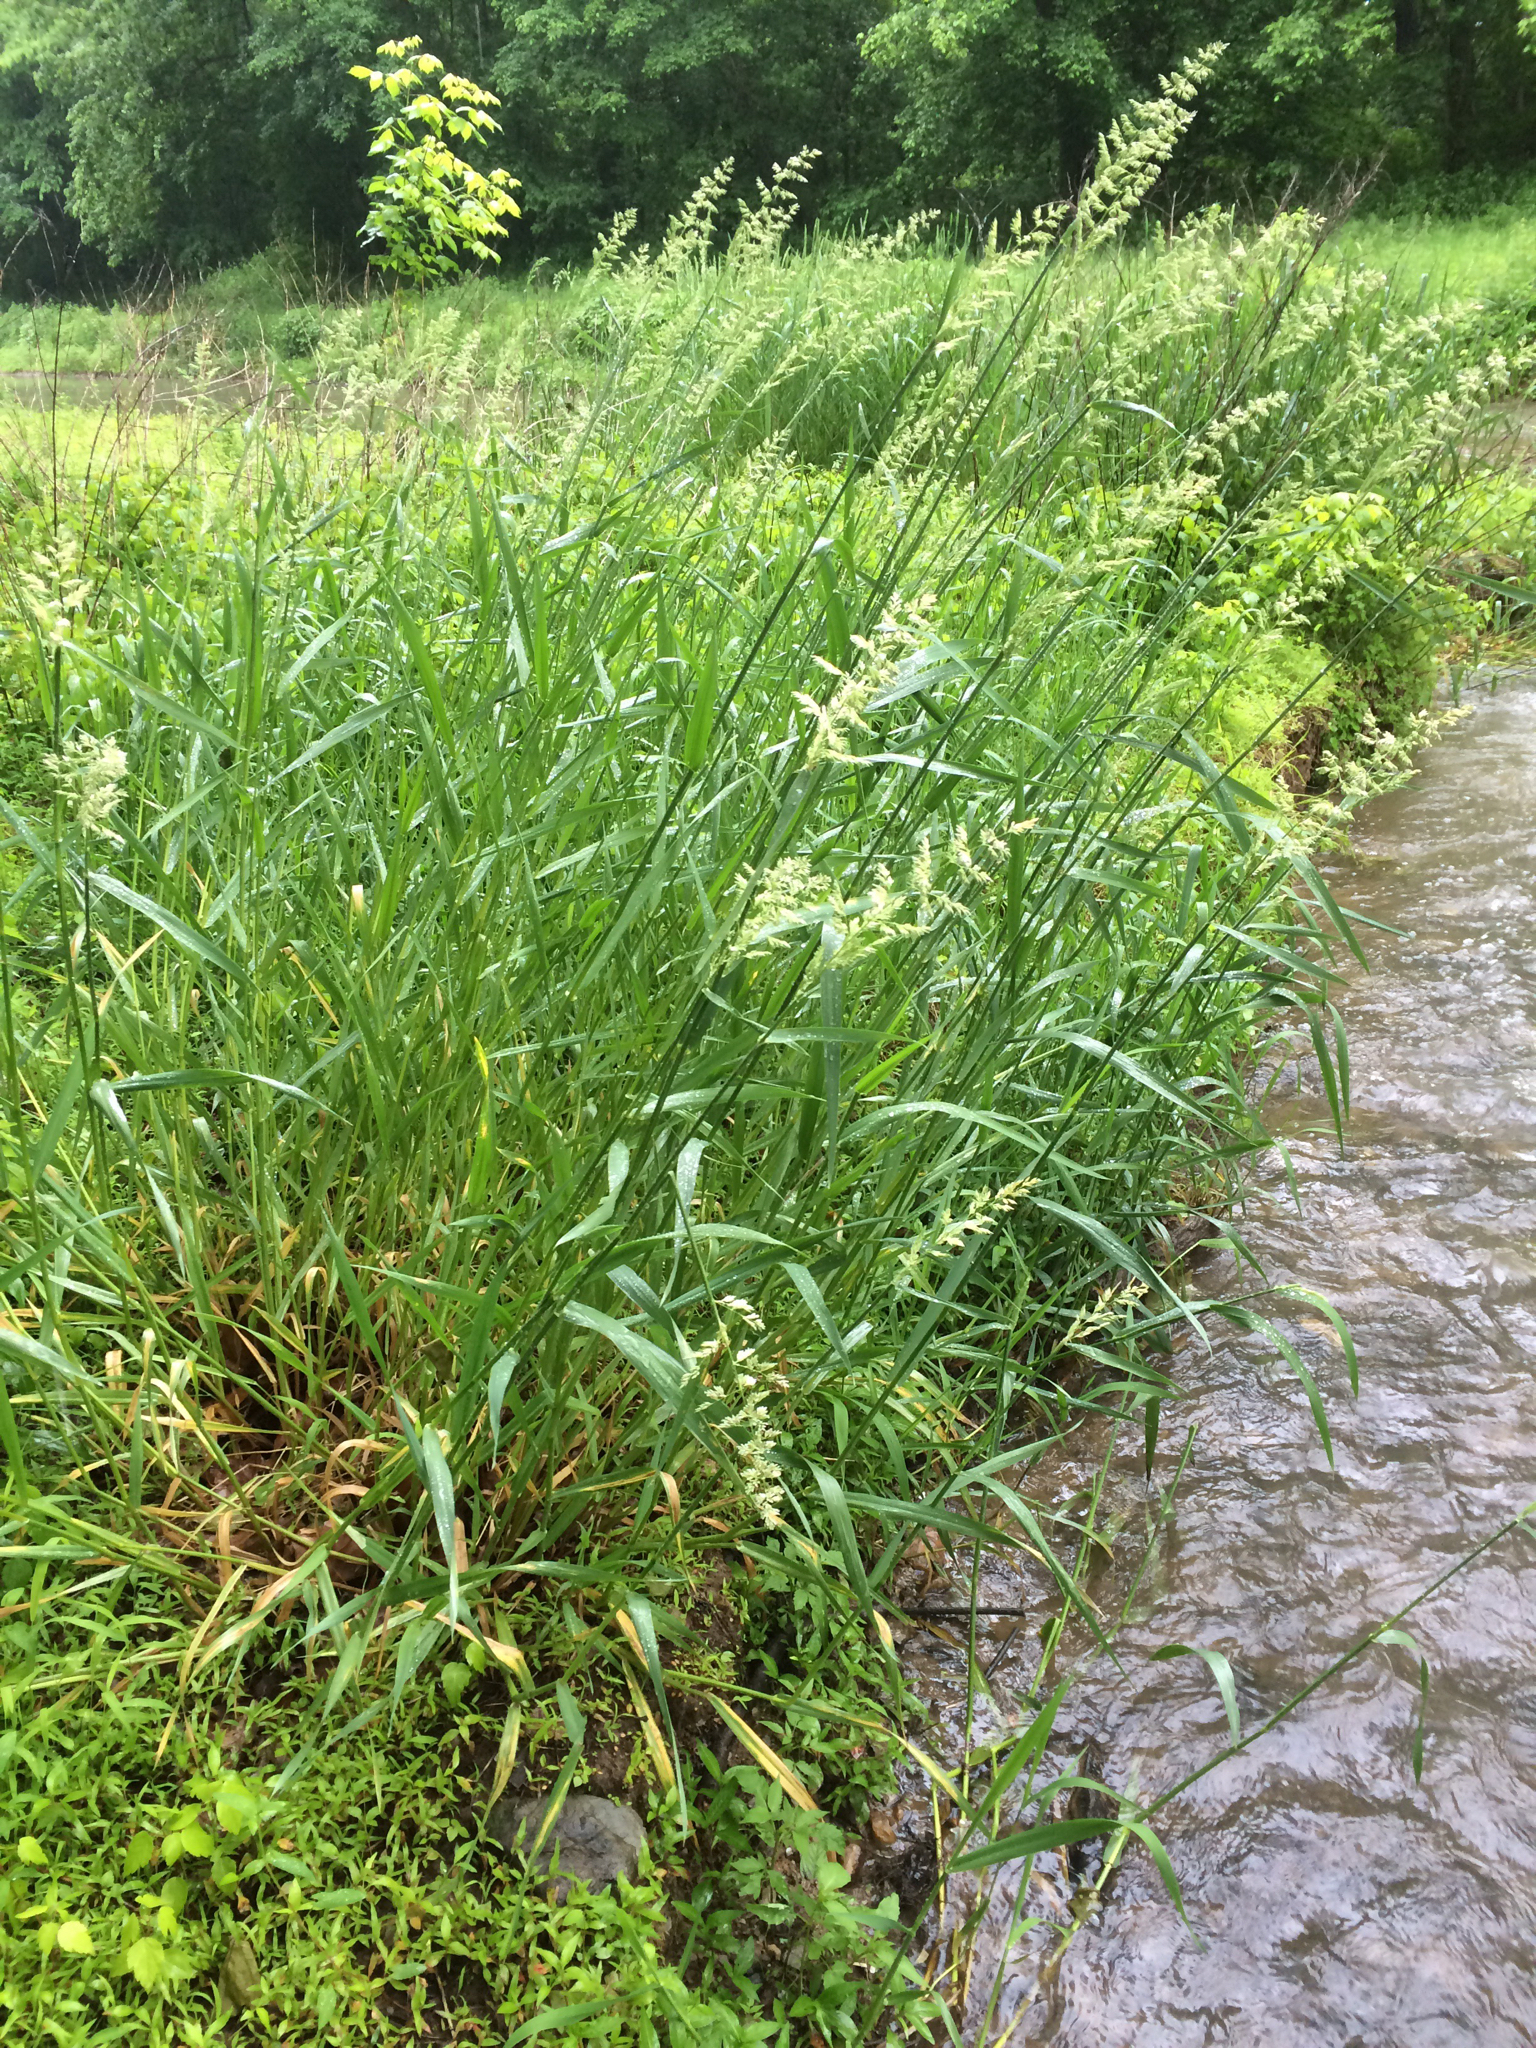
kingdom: Plantae
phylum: Tracheophyta
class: Liliopsida
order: Poales
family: Poaceae
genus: Phalaris
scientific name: Phalaris arundinacea
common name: Reed canary-grass
